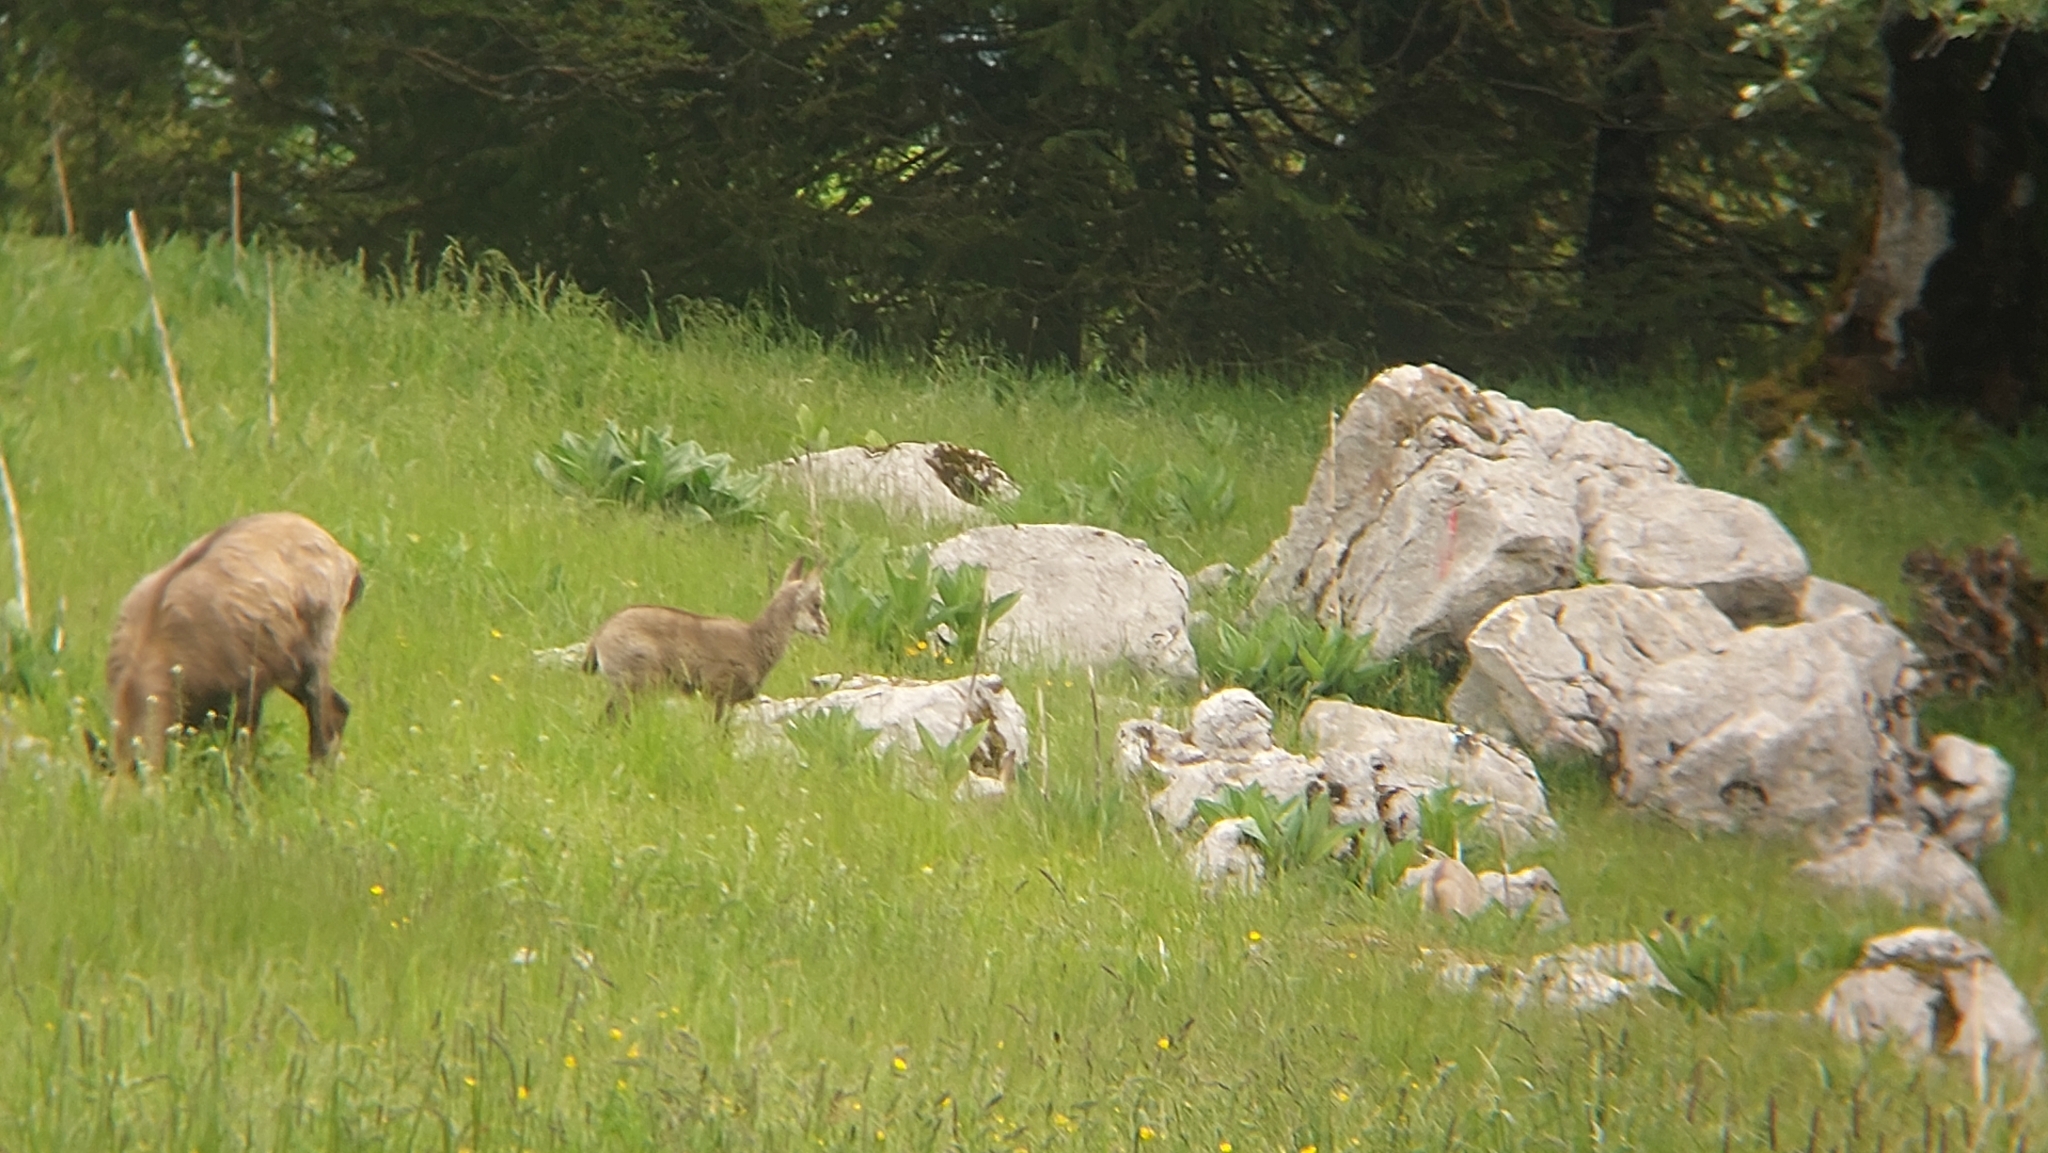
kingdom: Animalia
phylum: Chordata
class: Mammalia
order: Artiodactyla
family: Bovidae
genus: Rupicapra
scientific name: Rupicapra rupicapra
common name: Chamois
